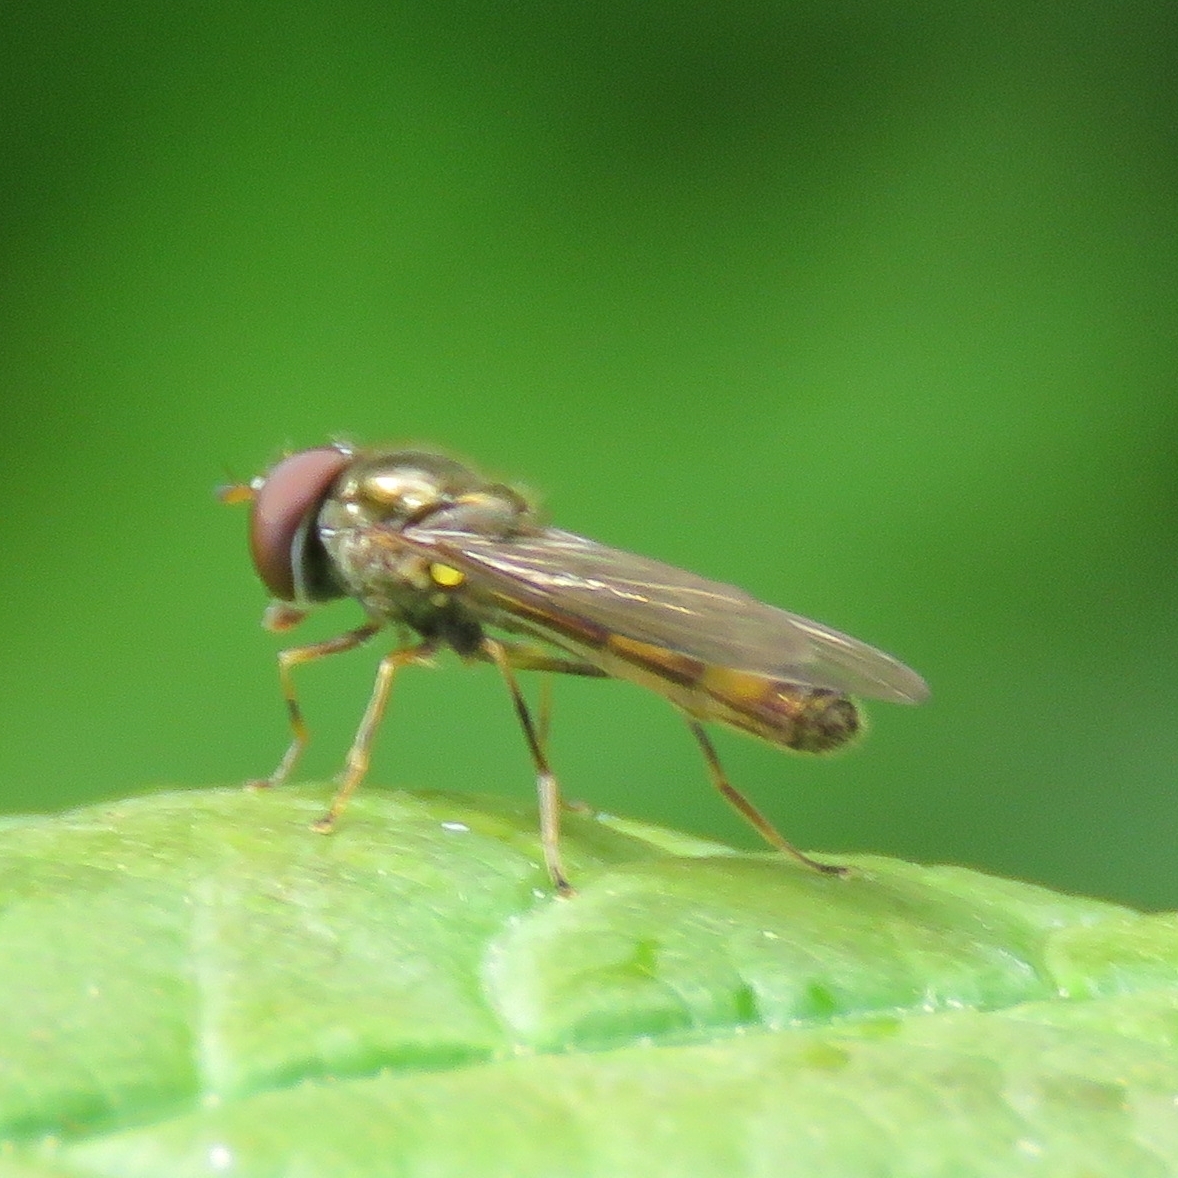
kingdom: Animalia
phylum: Arthropoda
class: Insecta
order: Diptera
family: Syrphidae
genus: Melanostoma
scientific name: Melanostoma scalare
